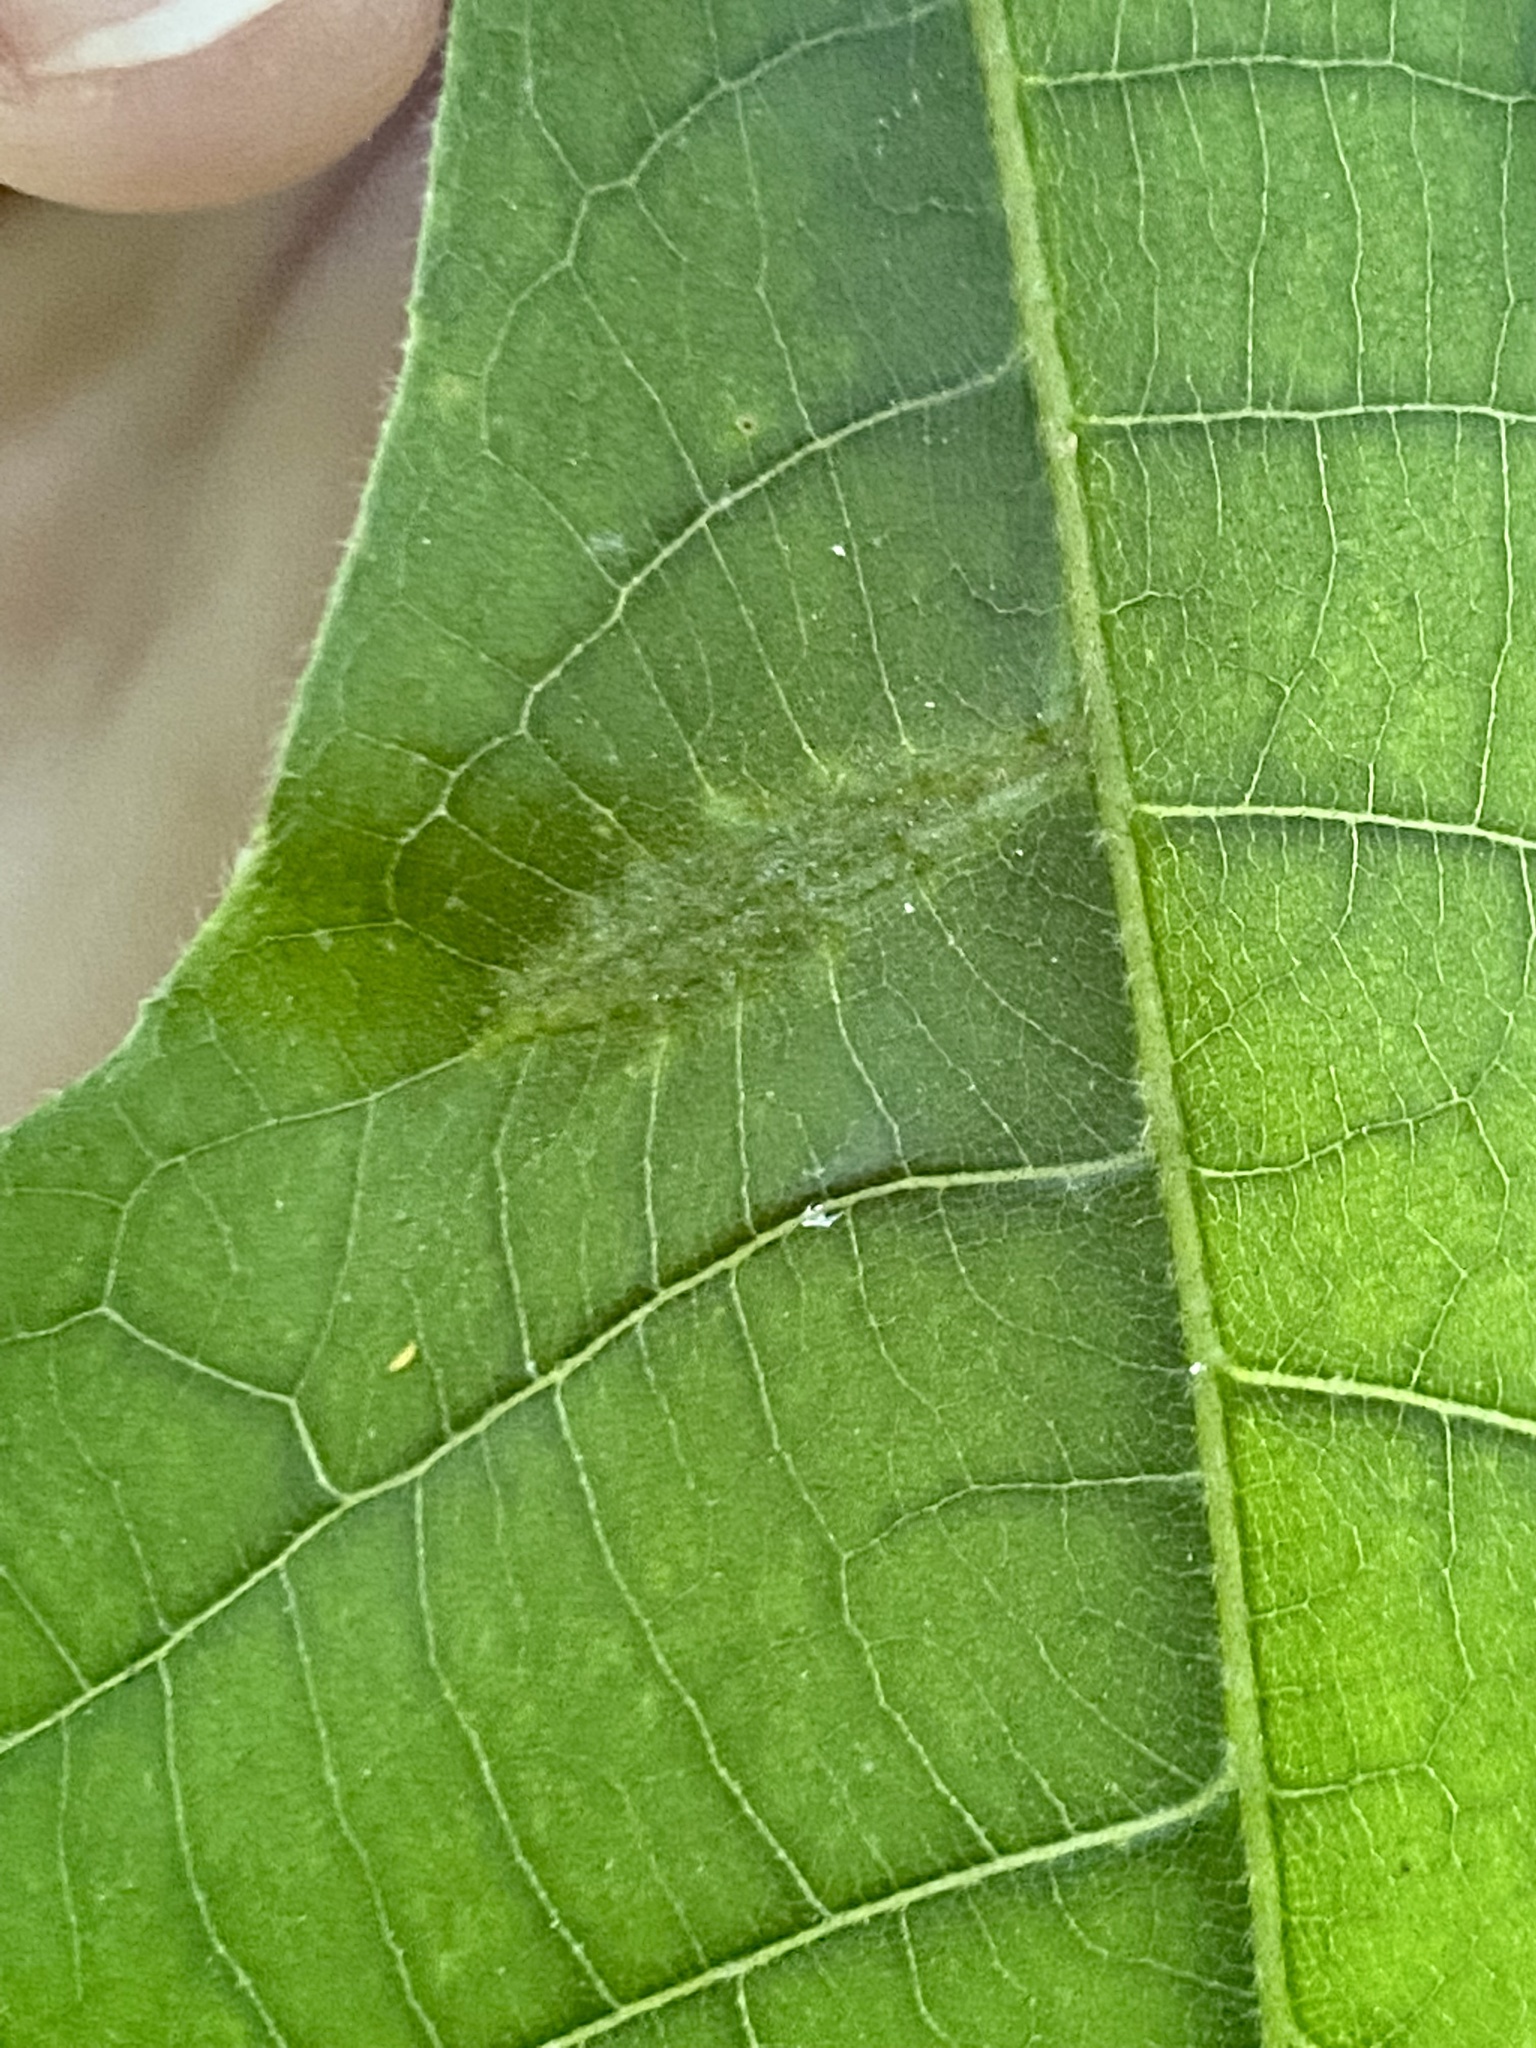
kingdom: Animalia
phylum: Arthropoda
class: Insecta
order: Hemiptera
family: Phylloxeridae
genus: Phylloxera
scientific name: Phylloxera caryaevenae
